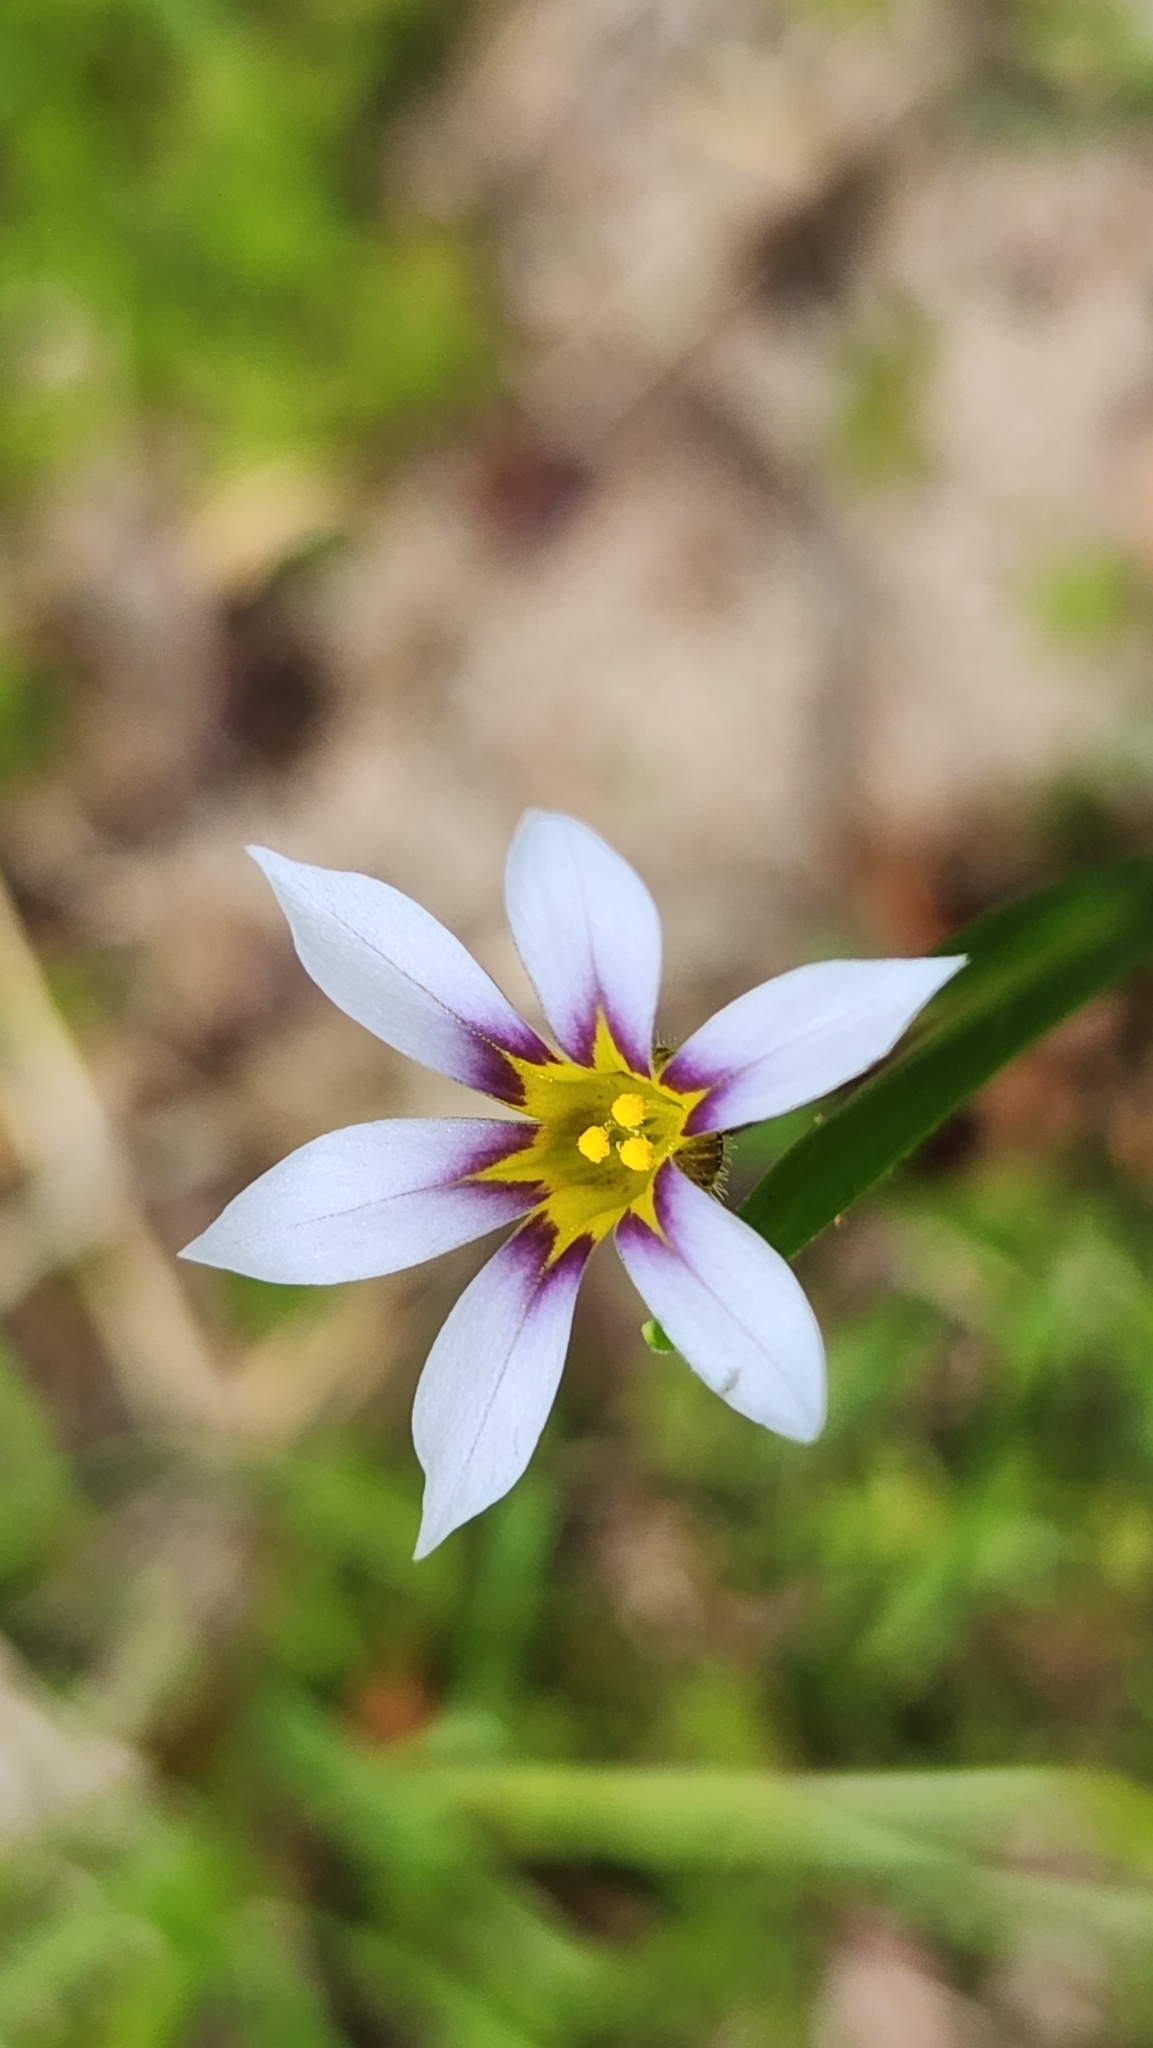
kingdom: Plantae
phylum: Tracheophyta
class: Liliopsida
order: Asparagales
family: Iridaceae
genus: Sisyrinchium
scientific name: Sisyrinchium micranthum
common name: Bermuda pigroot
